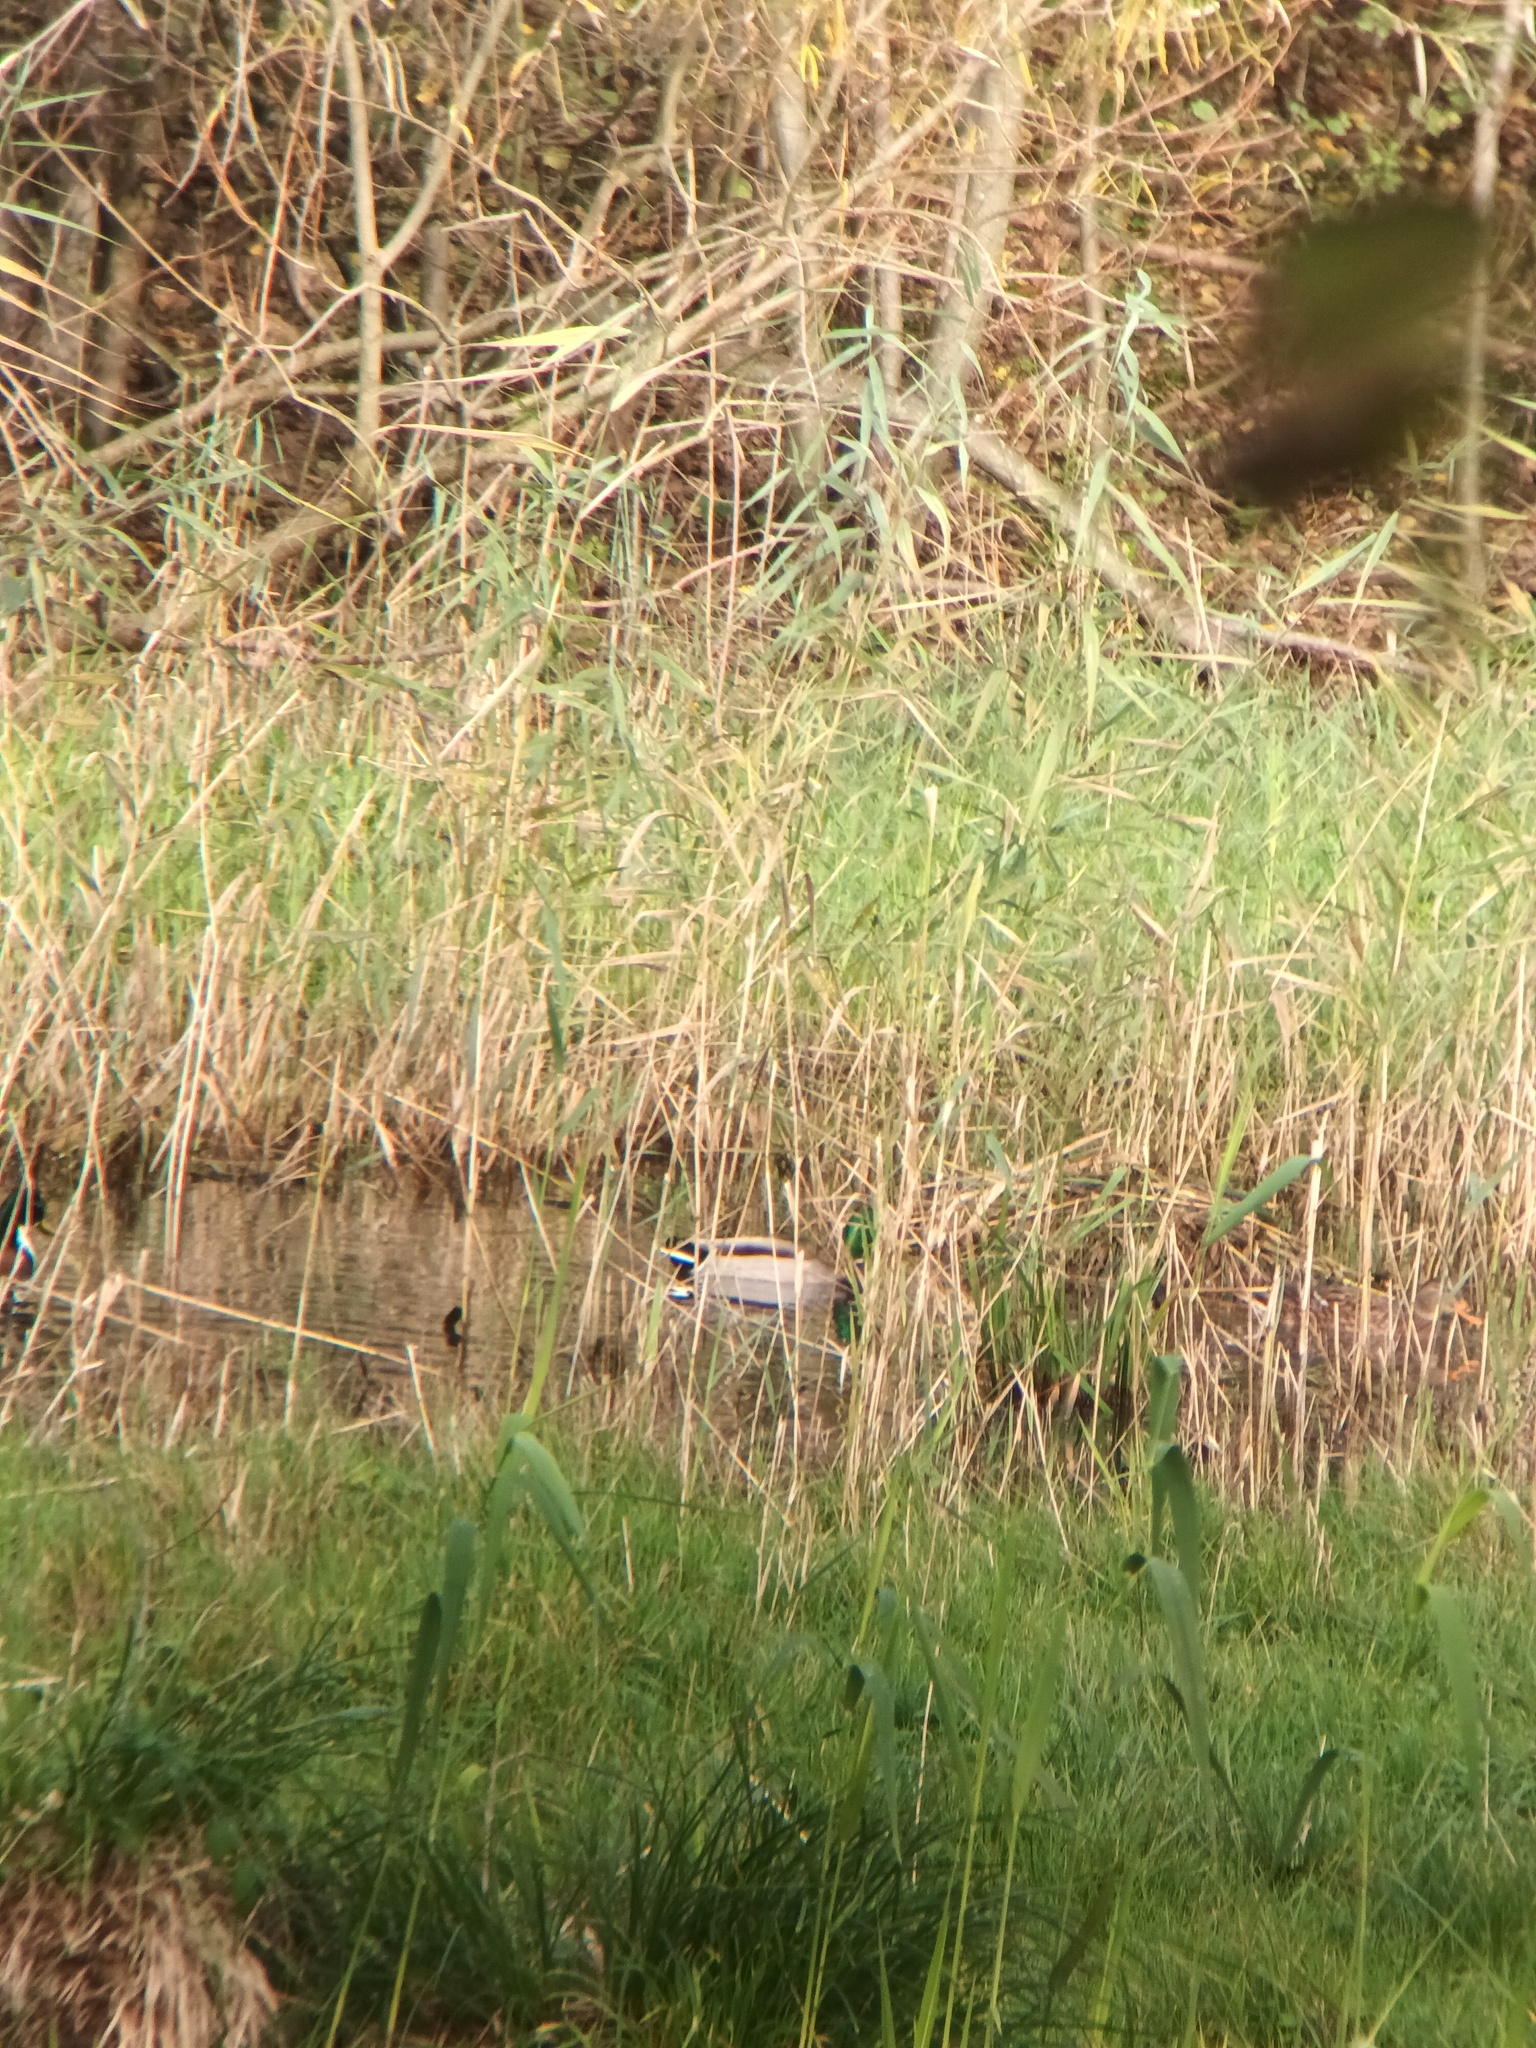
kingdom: Animalia
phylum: Chordata
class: Aves
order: Anseriformes
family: Anatidae
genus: Anas
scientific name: Anas platyrhynchos
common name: Mallard
